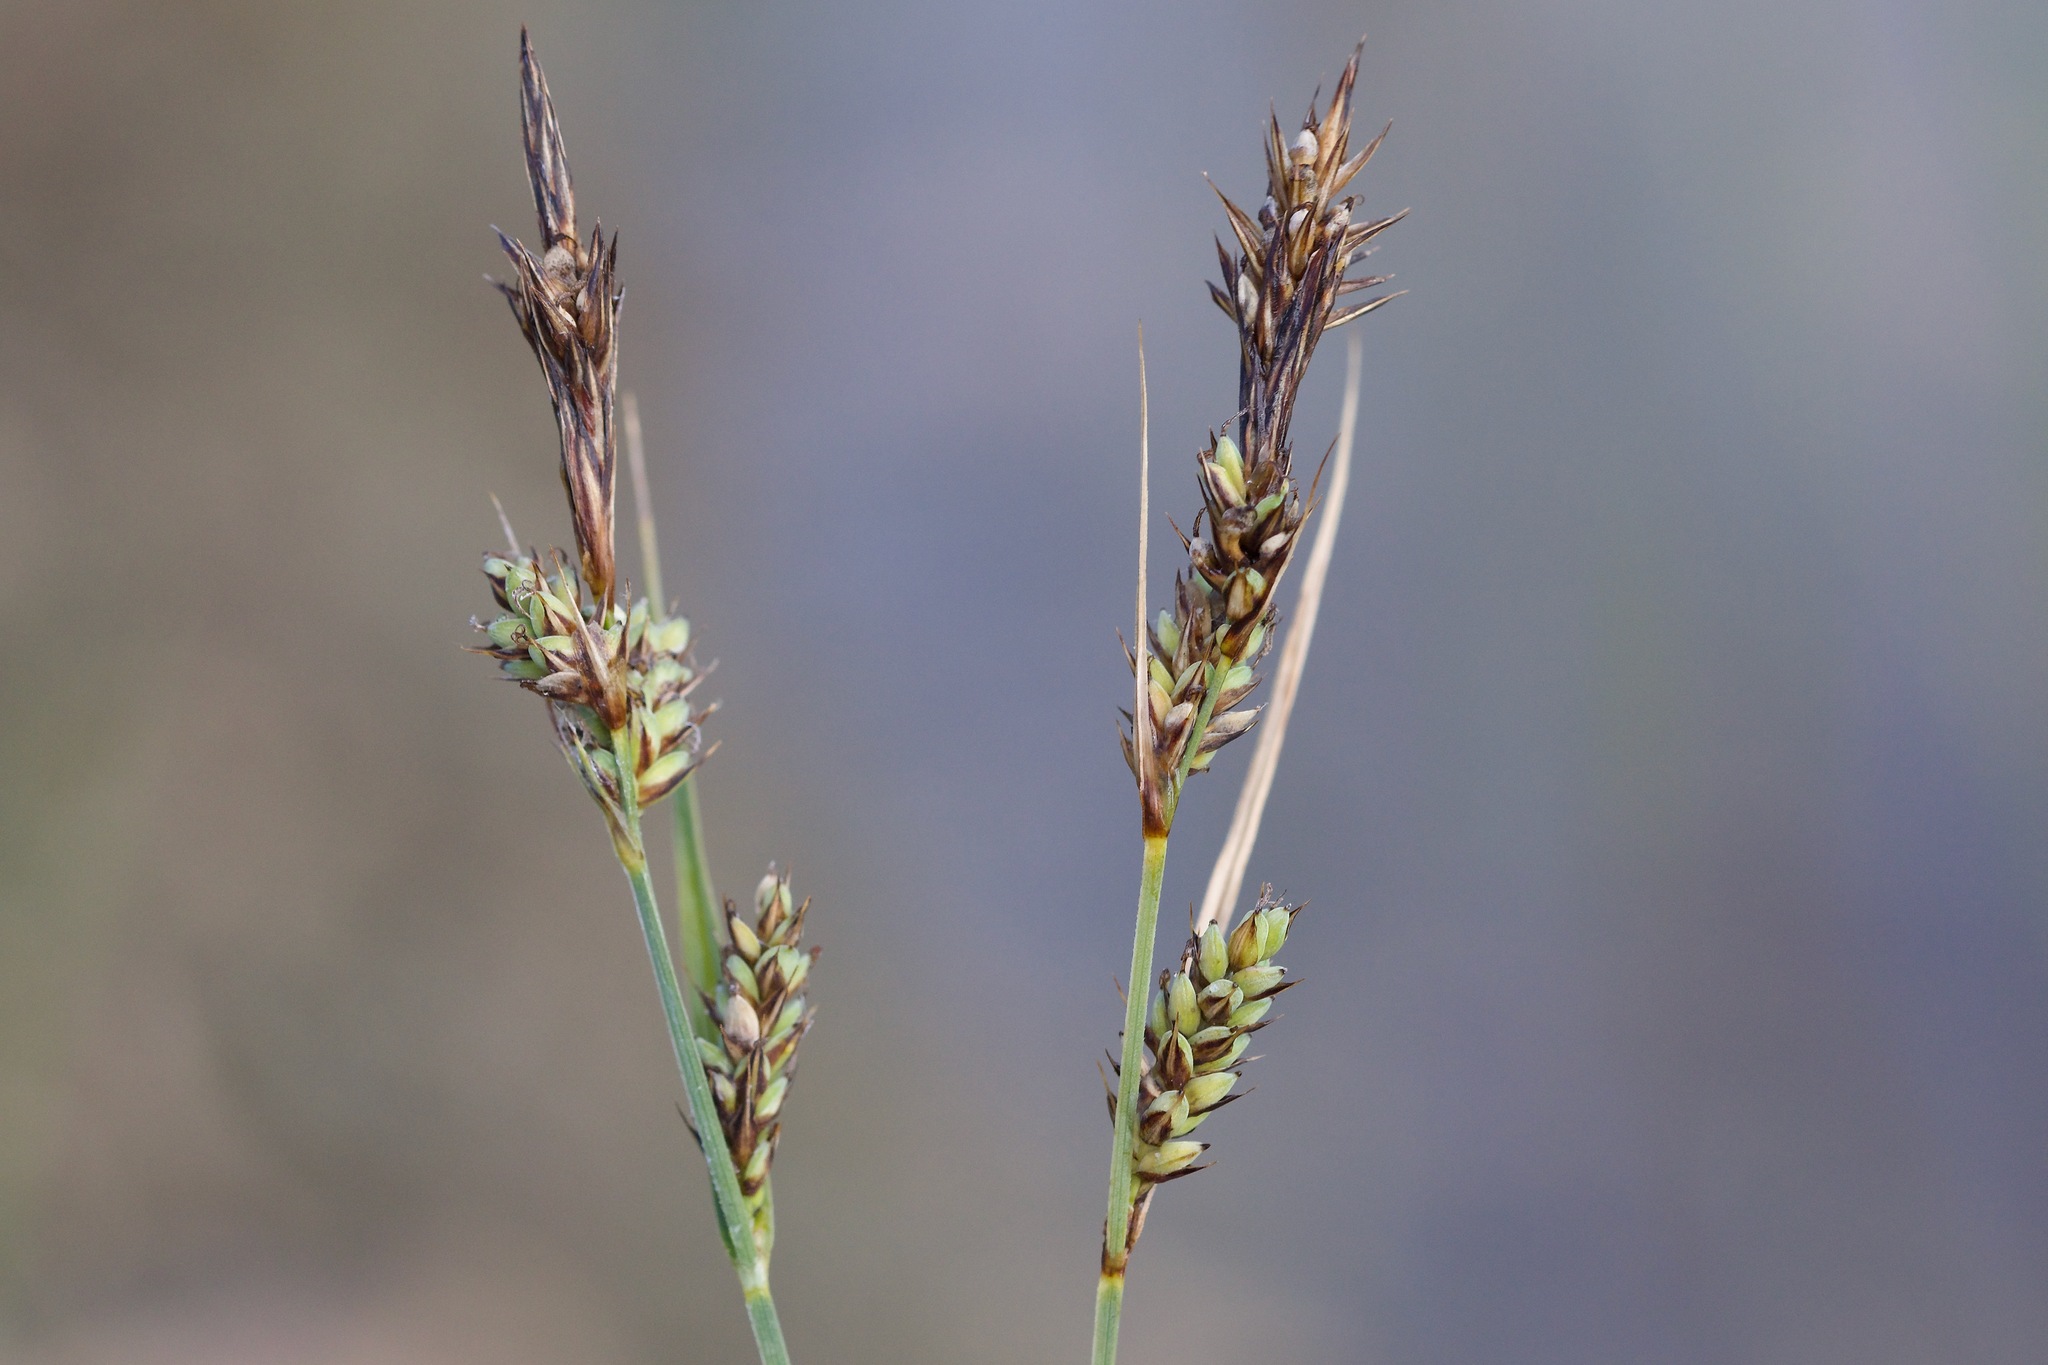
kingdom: Plantae
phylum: Tracheophyta
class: Liliopsida
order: Poales
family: Cyperaceae
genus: Carex
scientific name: Carex buxbaumii
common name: Club sedge
